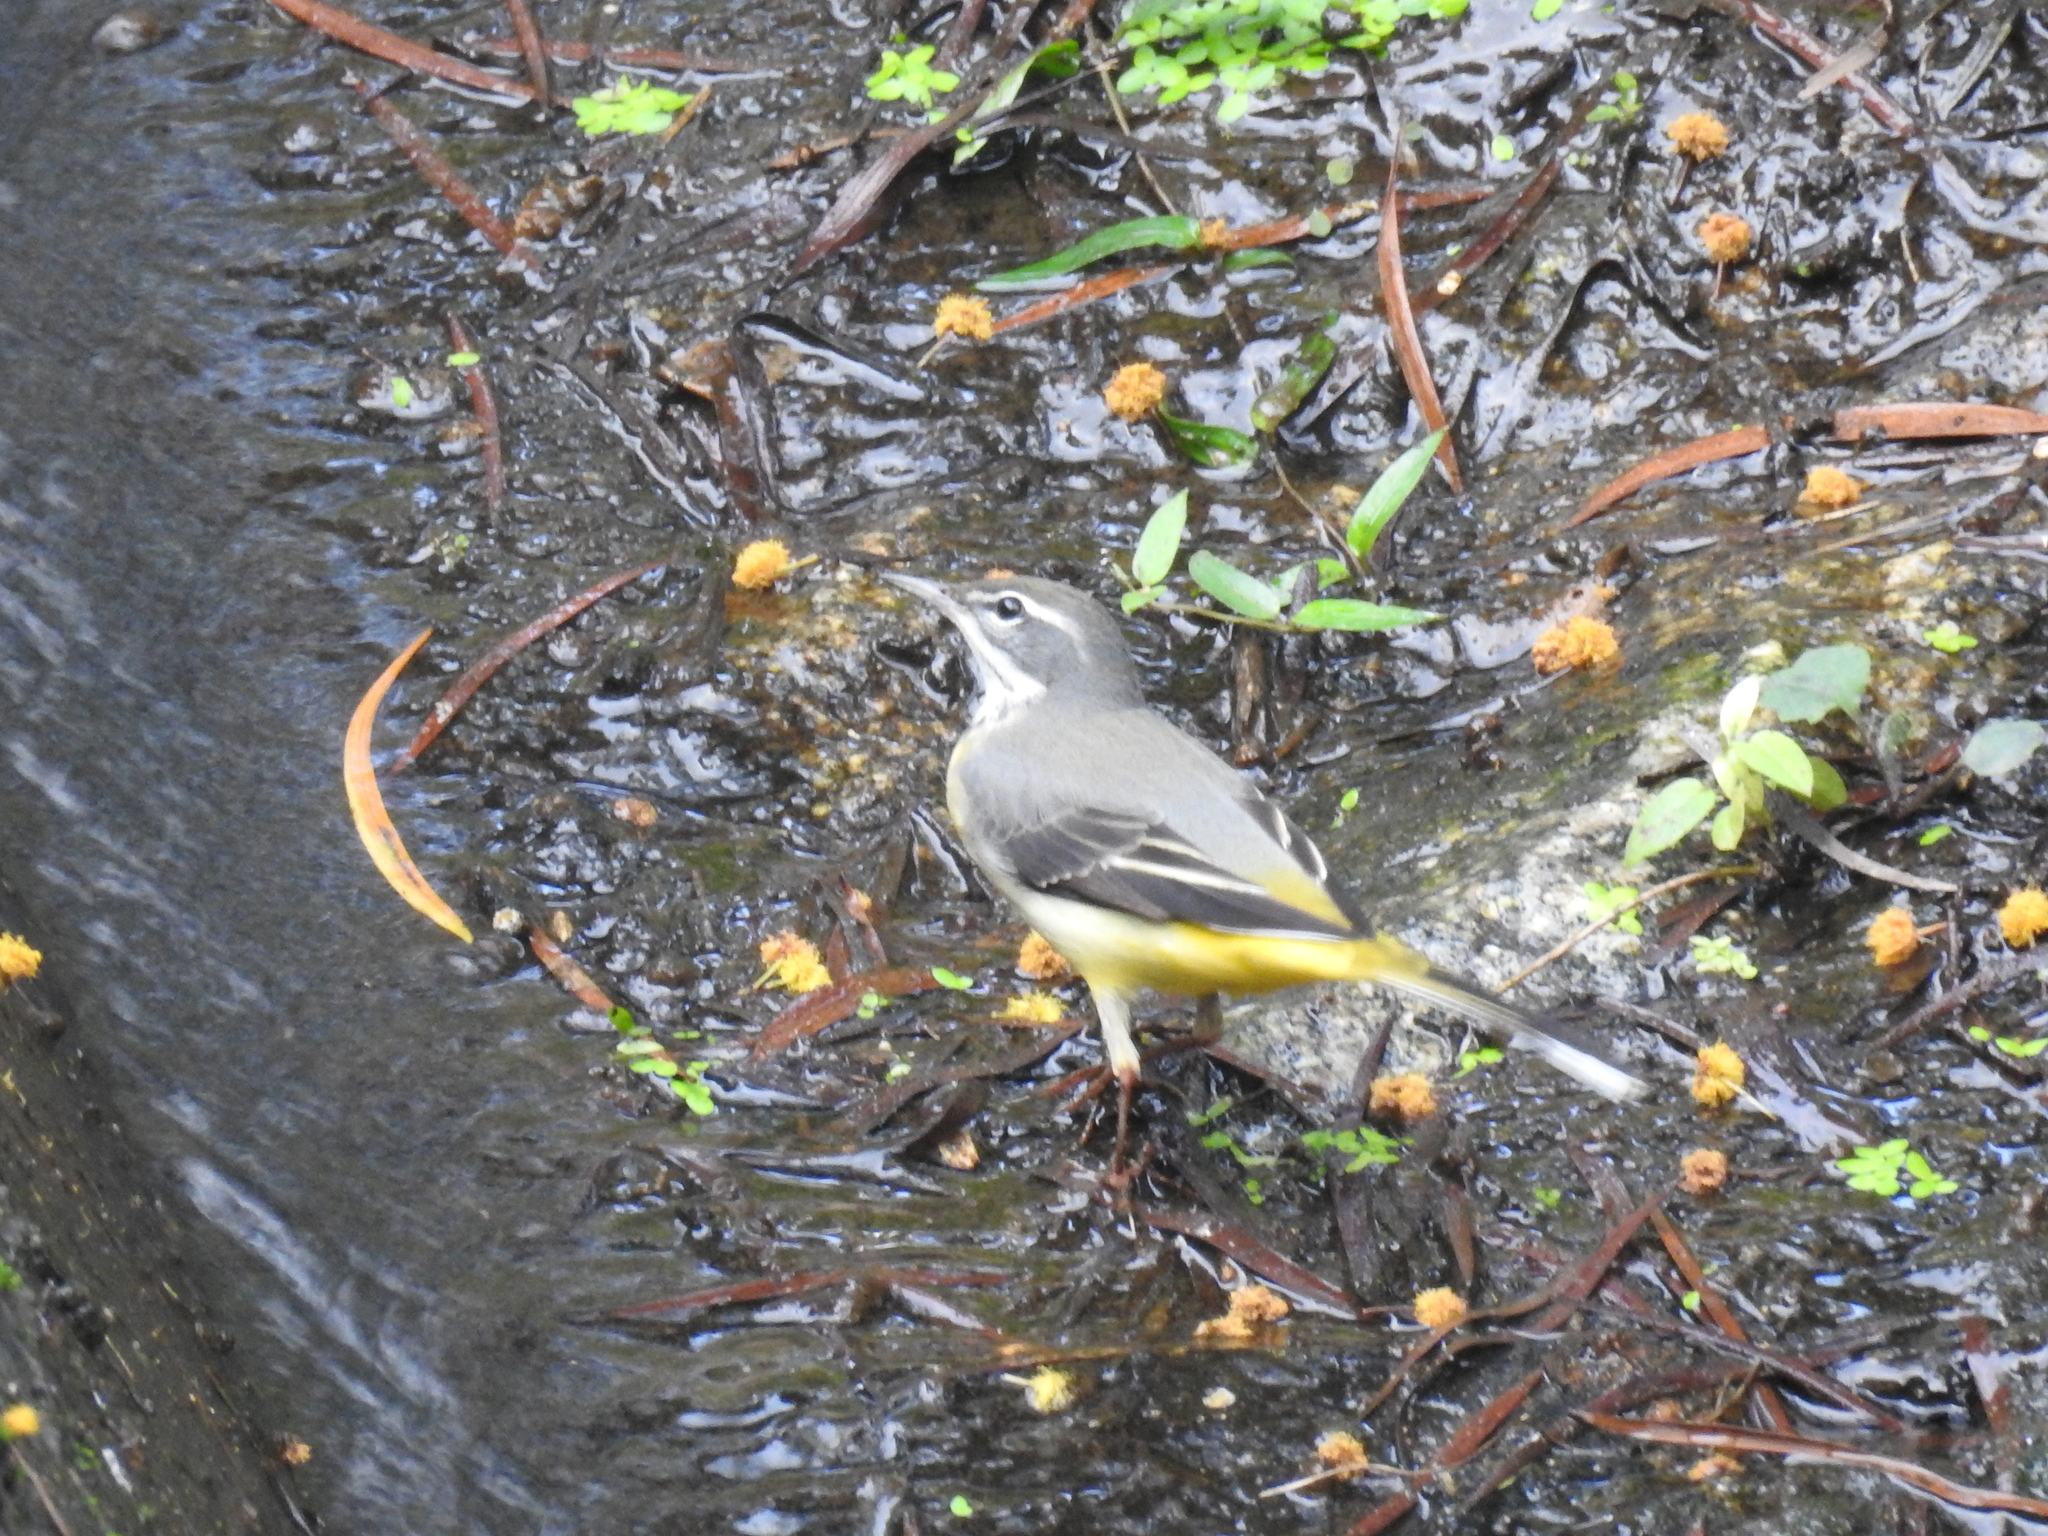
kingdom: Animalia
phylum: Chordata
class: Aves
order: Passeriformes
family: Motacillidae
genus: Motacilla
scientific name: Motacilla cinerea
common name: Grey wagtail
